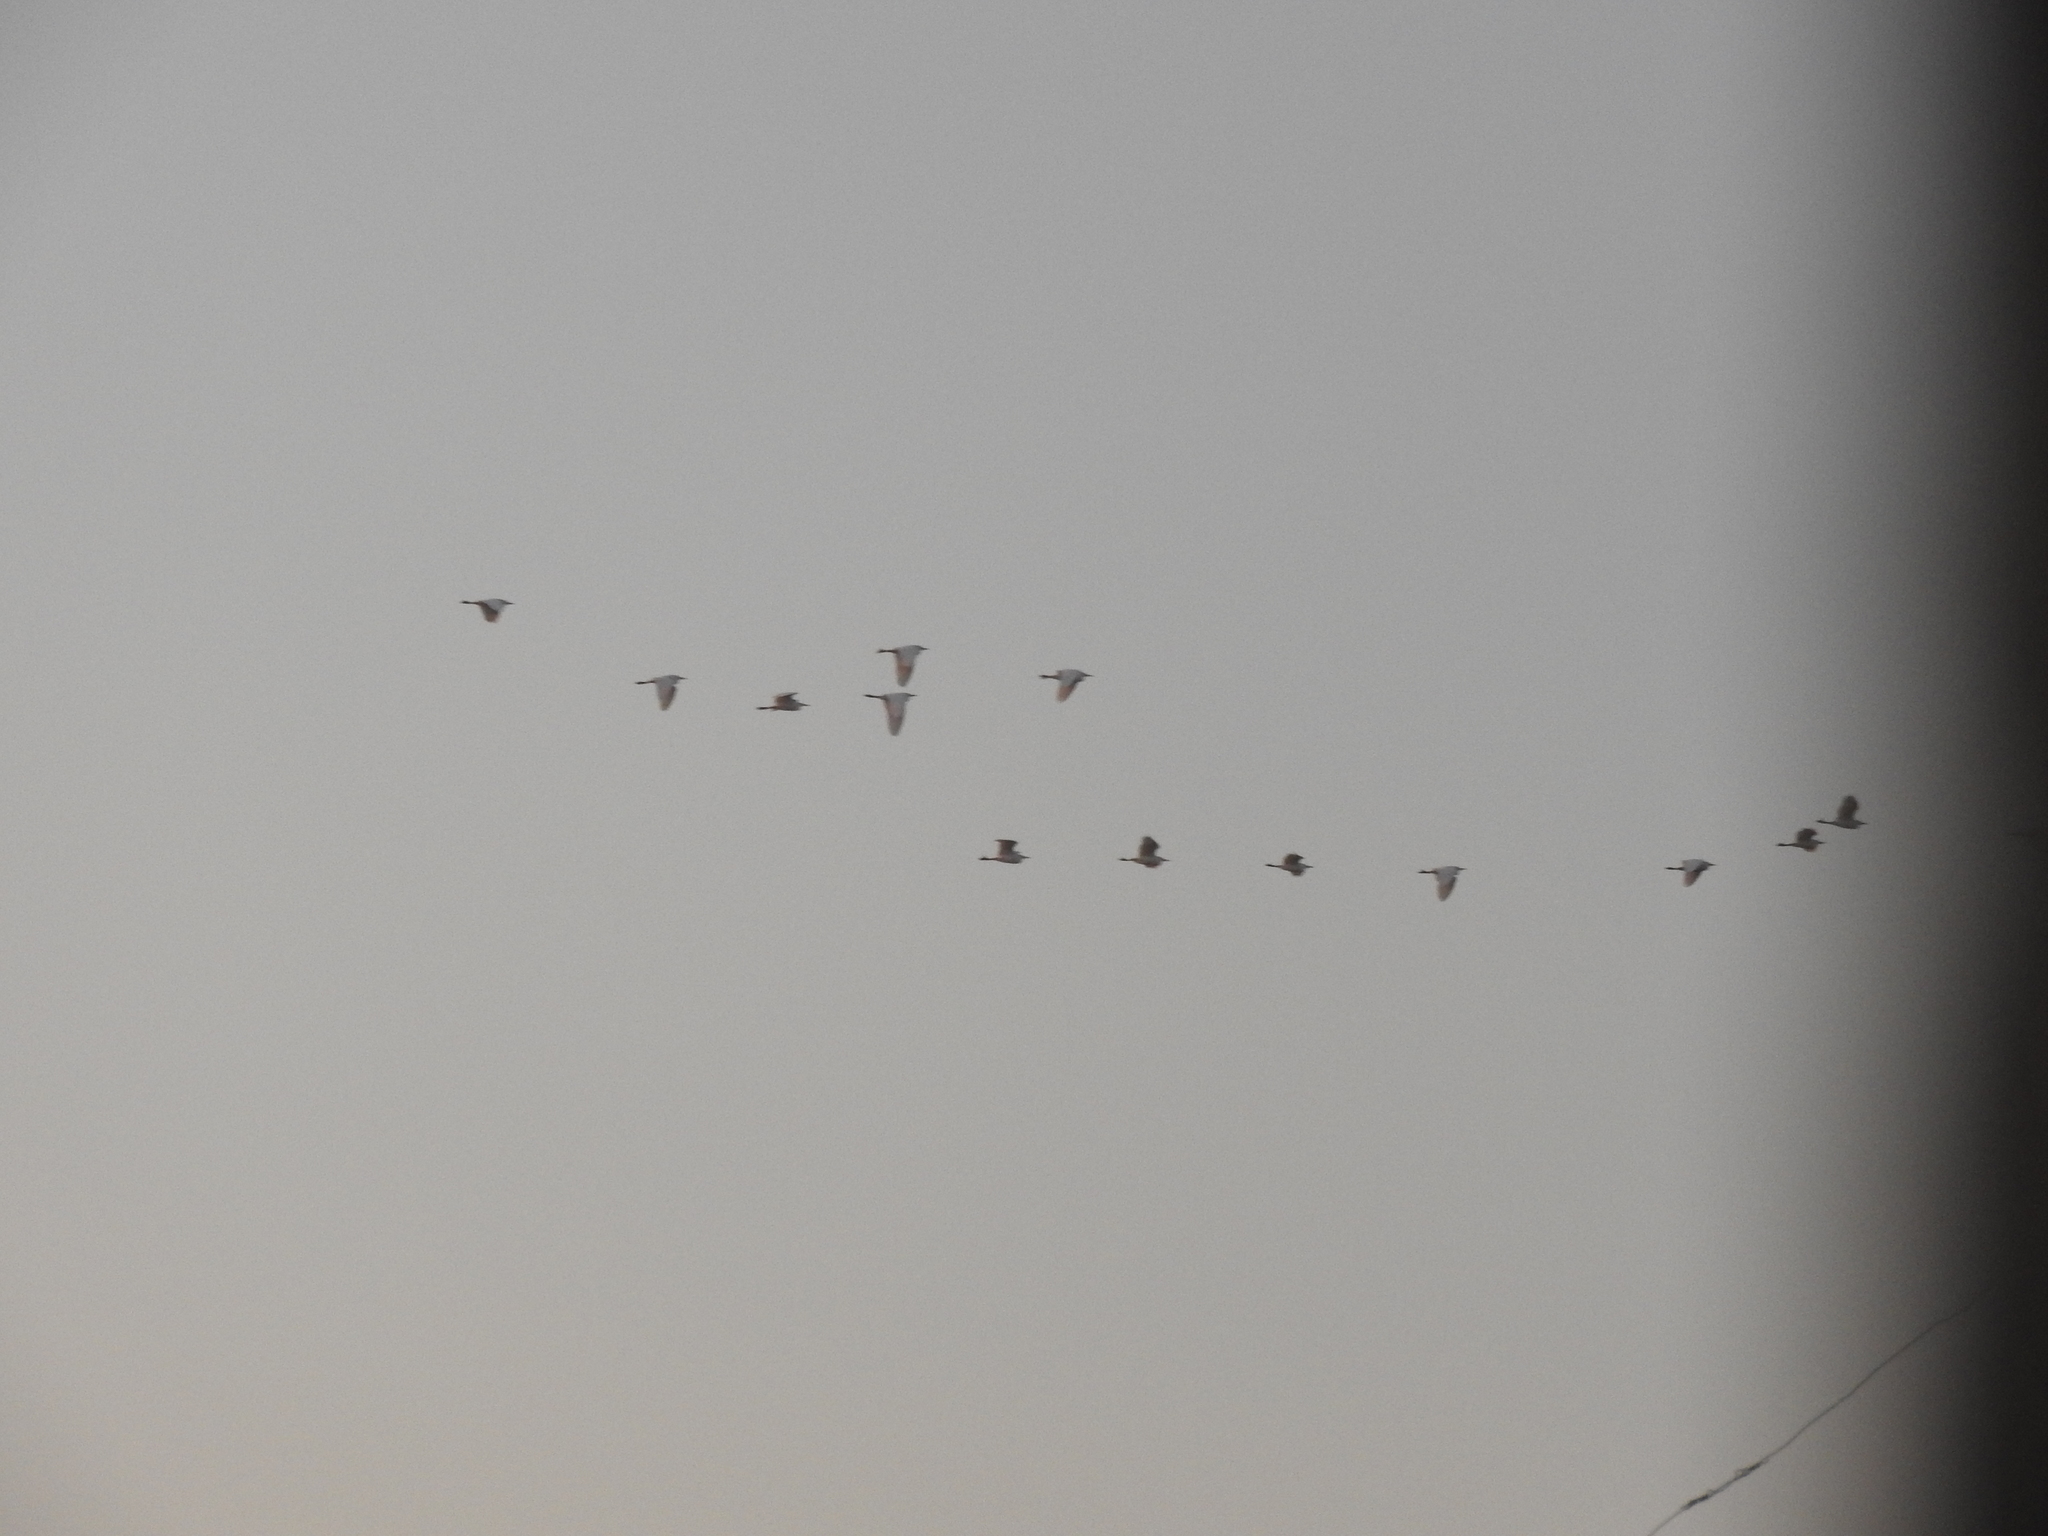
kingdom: Animalia
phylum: Chordata
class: Aves
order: Pelecaniformes
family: Ardeidae
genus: Bubulcus
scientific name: Bubulcus ibis
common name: Cattle egret
